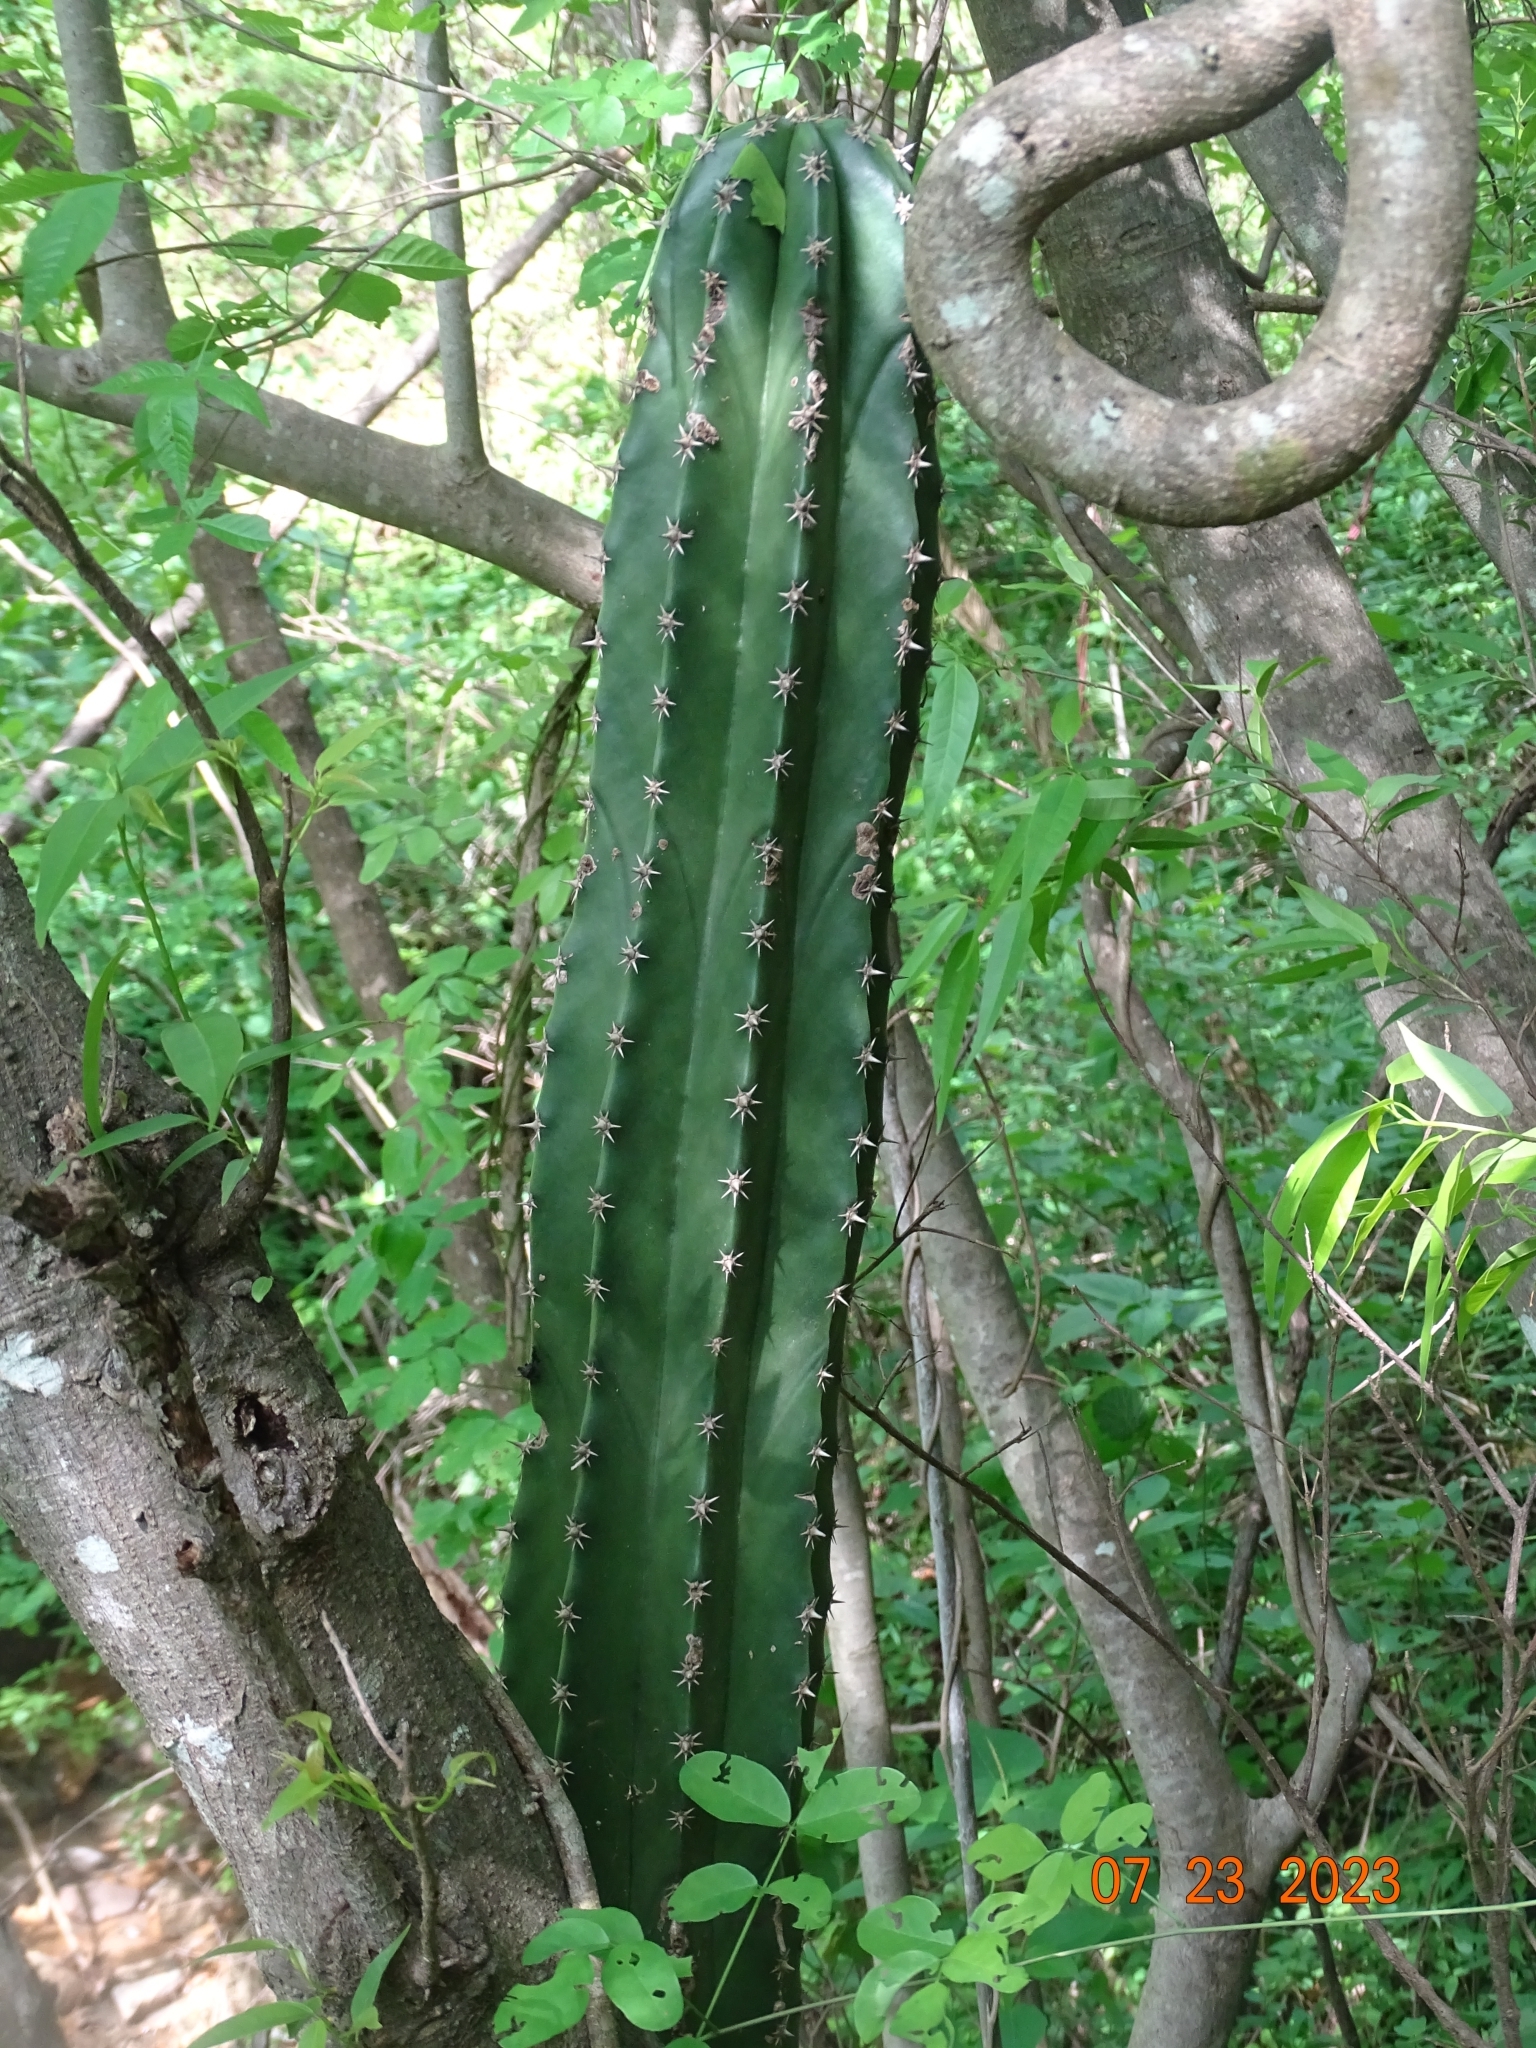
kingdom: Plantae
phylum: Tracheophyta
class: Magnoliopsida
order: Caryophyllales
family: Cactaceae
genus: Pachycereus
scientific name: Pachycereus pecten-aboriginum
